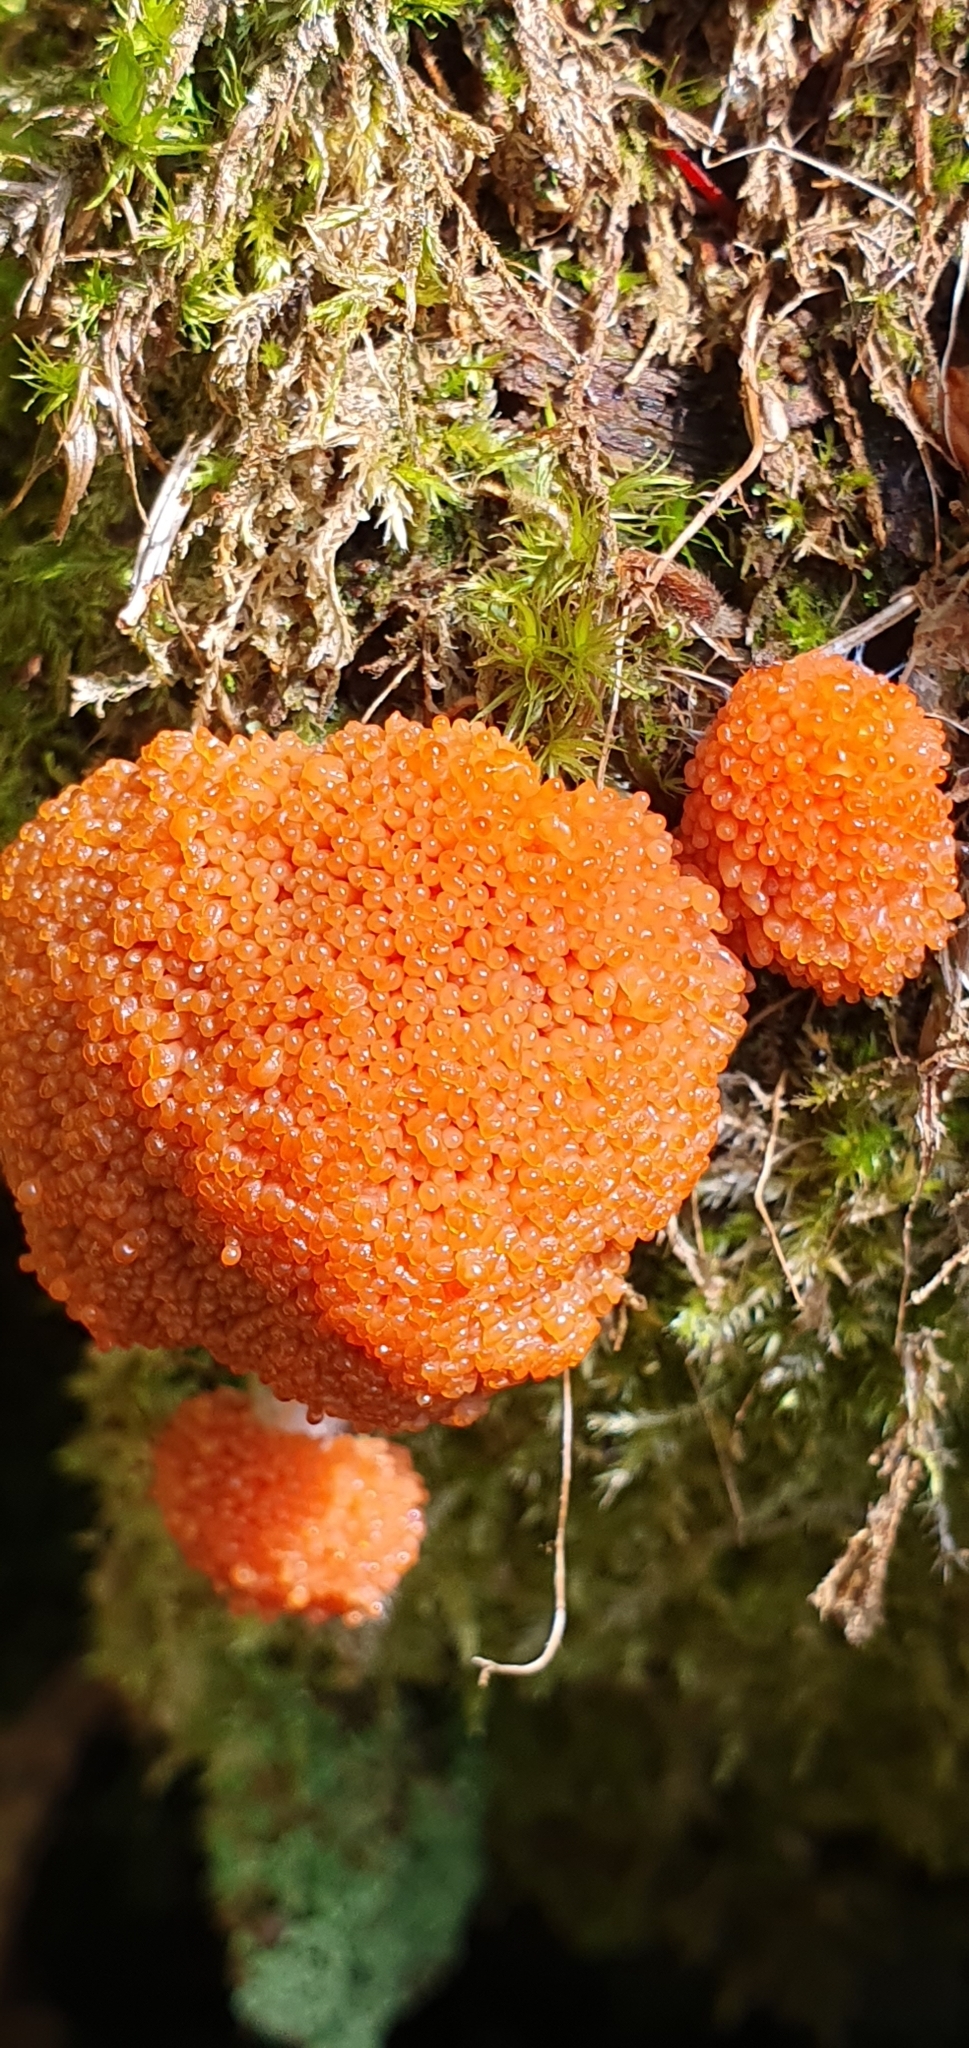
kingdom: Protozoa
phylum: Mycetozoa
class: Myxomycetes
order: Cribrariales
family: Tubiferaceae
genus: Tubifera
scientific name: Tubifera ferruginosa
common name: Red raspberry slime mold
